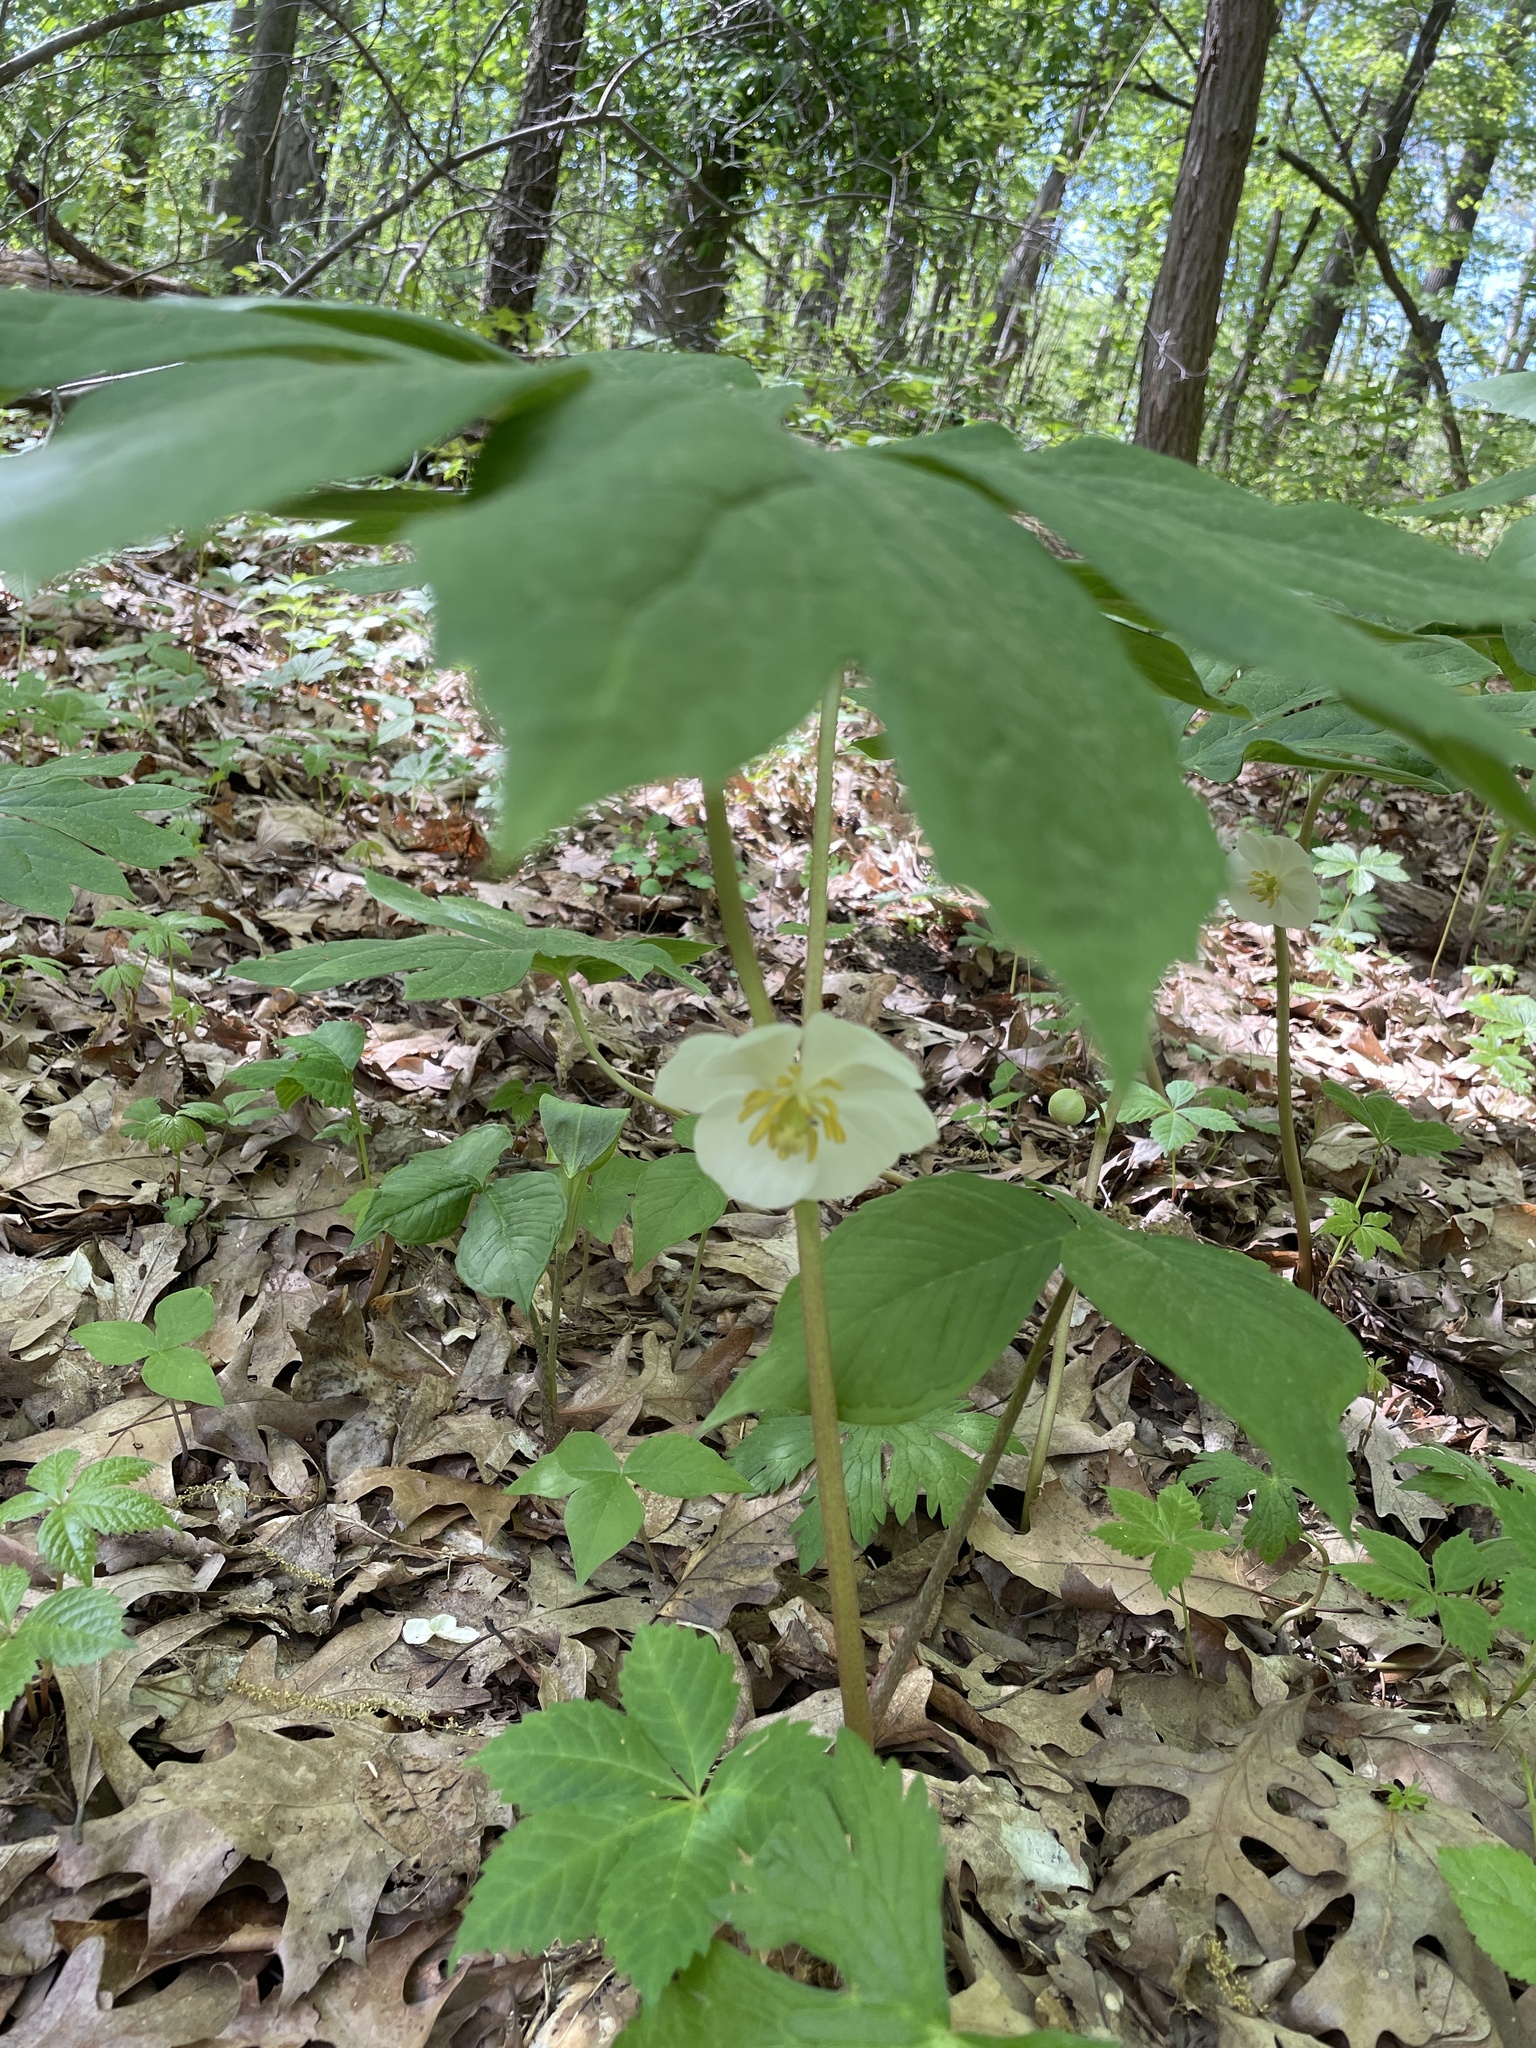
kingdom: Plantae
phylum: Tracheophyta
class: Magnoliopsida
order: Ranunculales
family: Berberidaceae
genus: Podophyllum
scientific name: Podophyllum peltatum
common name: Wild mandrake
